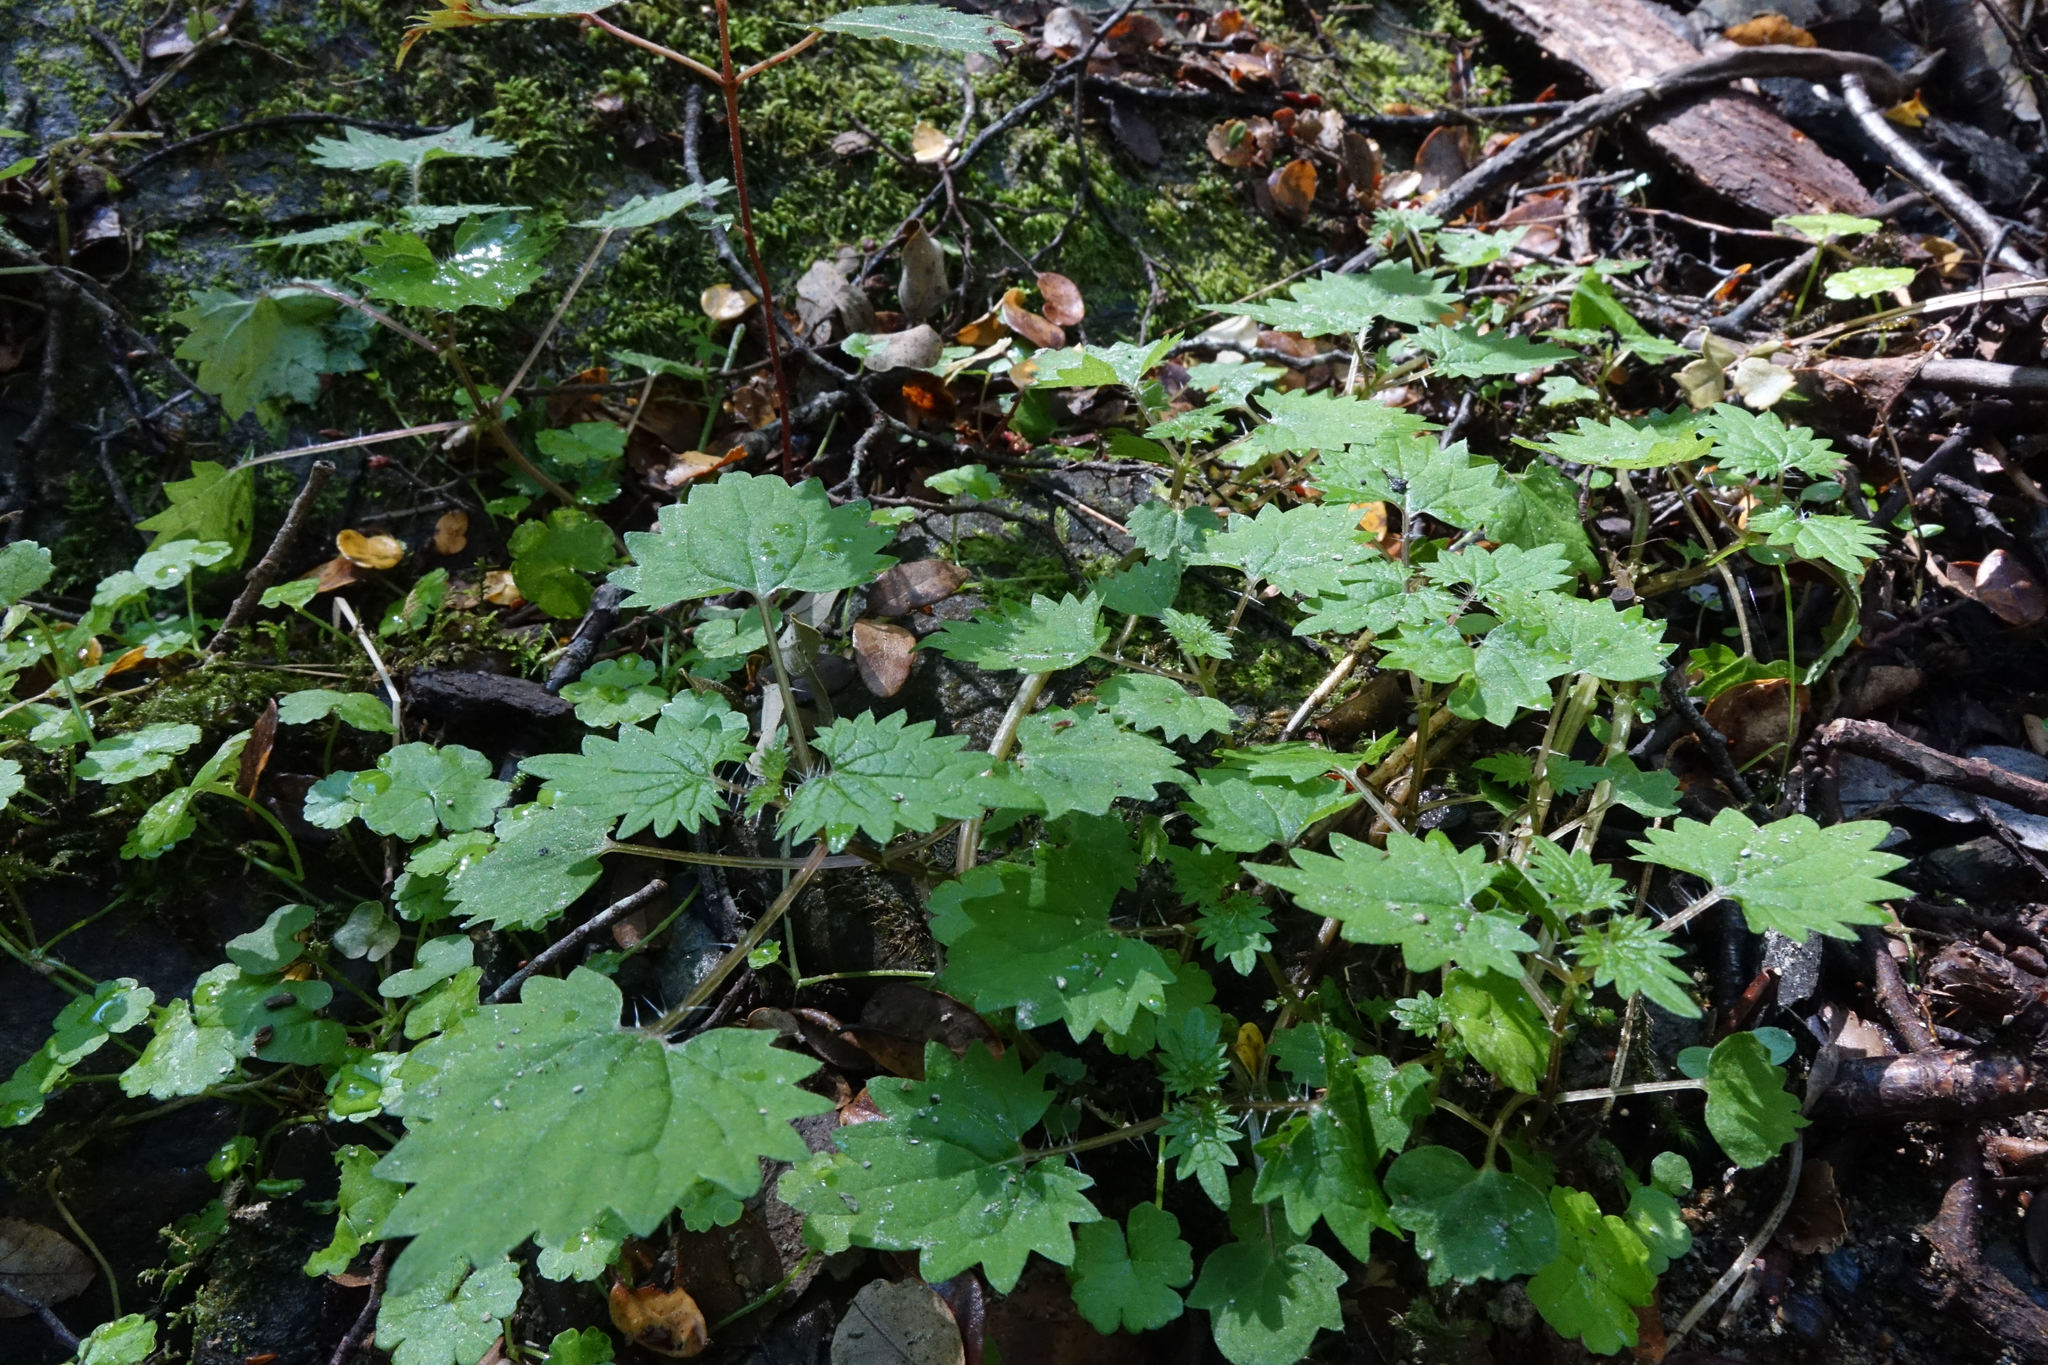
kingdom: Plantae
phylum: Tracheophyta
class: Magnoliopsida
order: Rosales
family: Urticaceae
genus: Urtica
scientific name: Urtica sykesii
